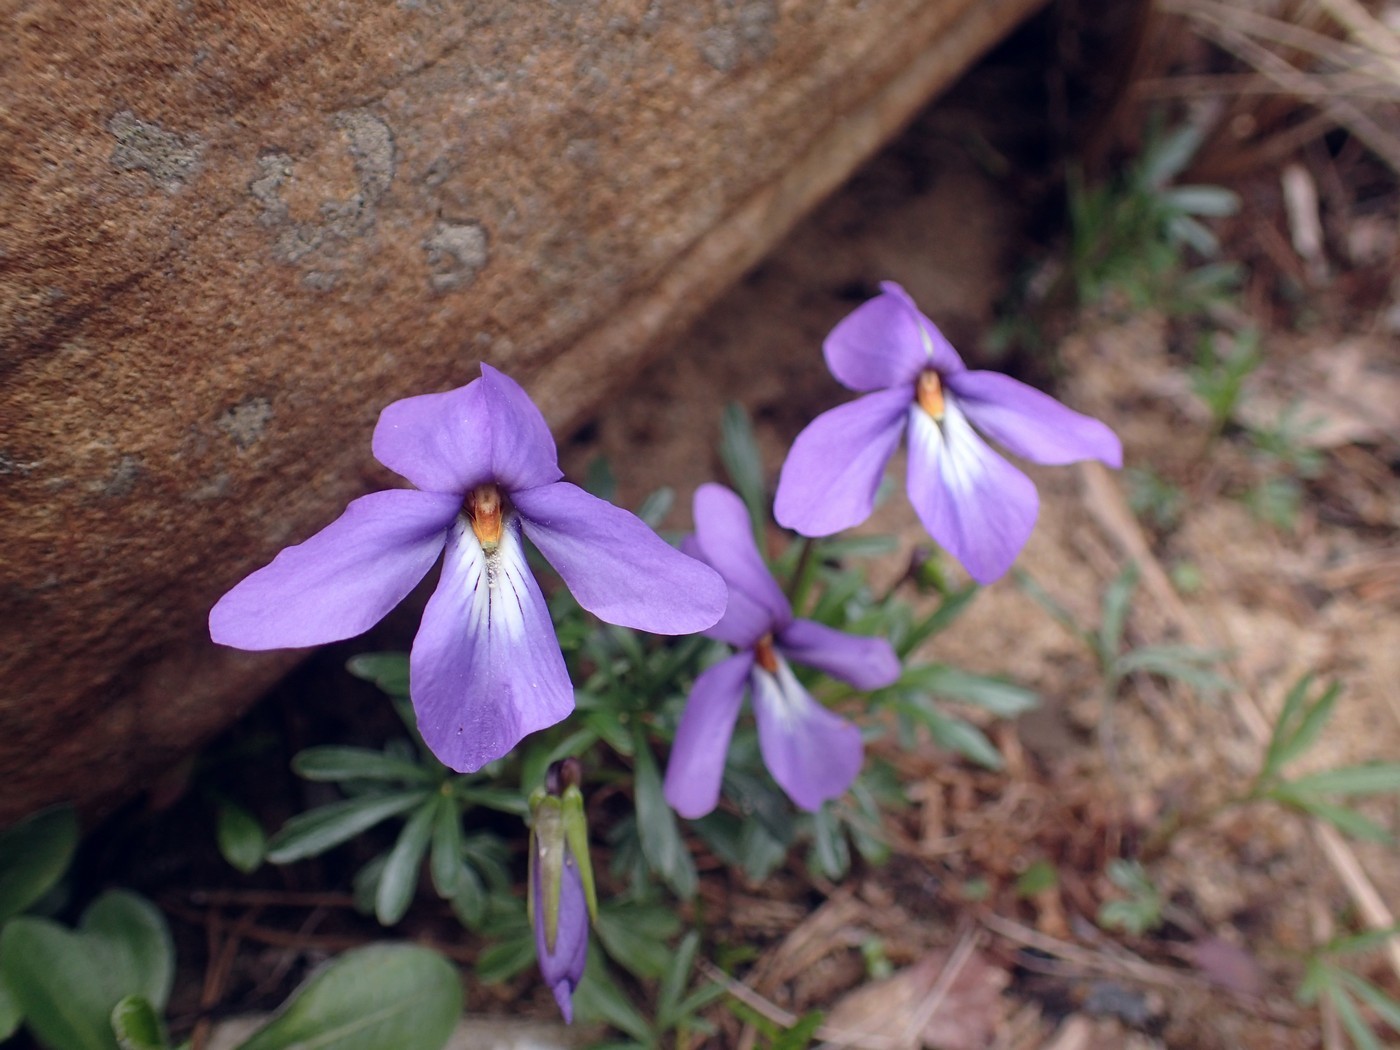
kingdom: Plantae
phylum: Tracheophyta
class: Magnoliopsida
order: Malpighiales
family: Violaceae
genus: Viola
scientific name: Viola pedata
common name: Pansy violet
